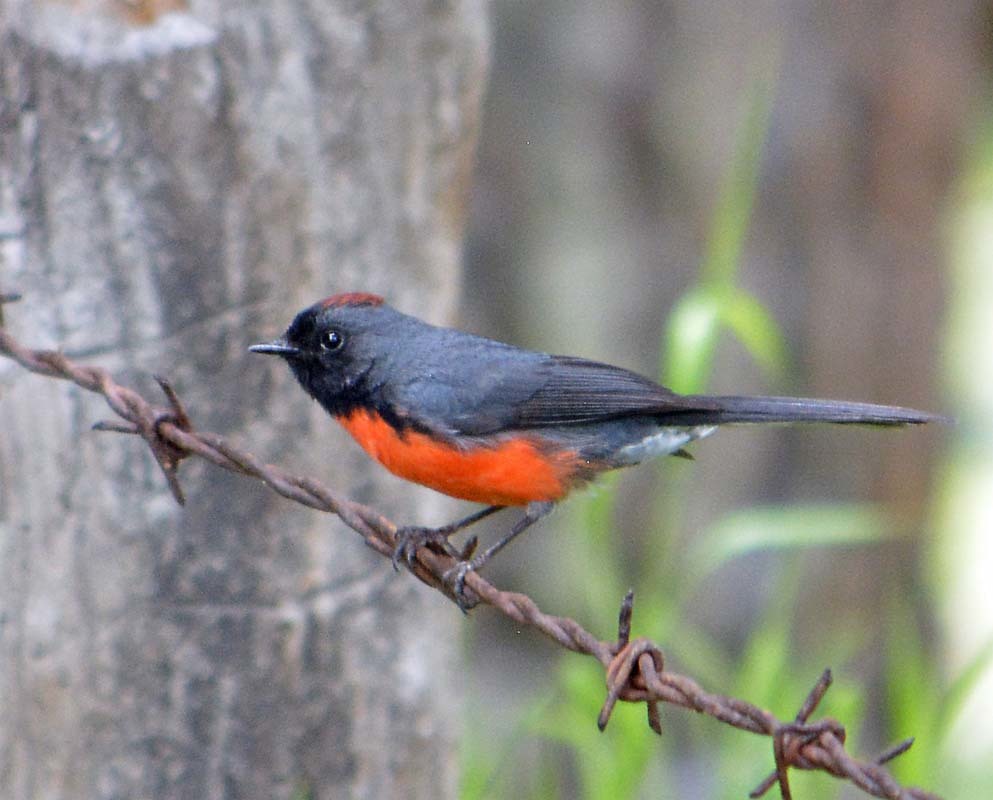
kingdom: Animalia
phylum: Chordata
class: Aves
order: Passeriformes
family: Parulidae
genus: Myioborus
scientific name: Myioborus miniatus
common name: Slate-throated redstart
